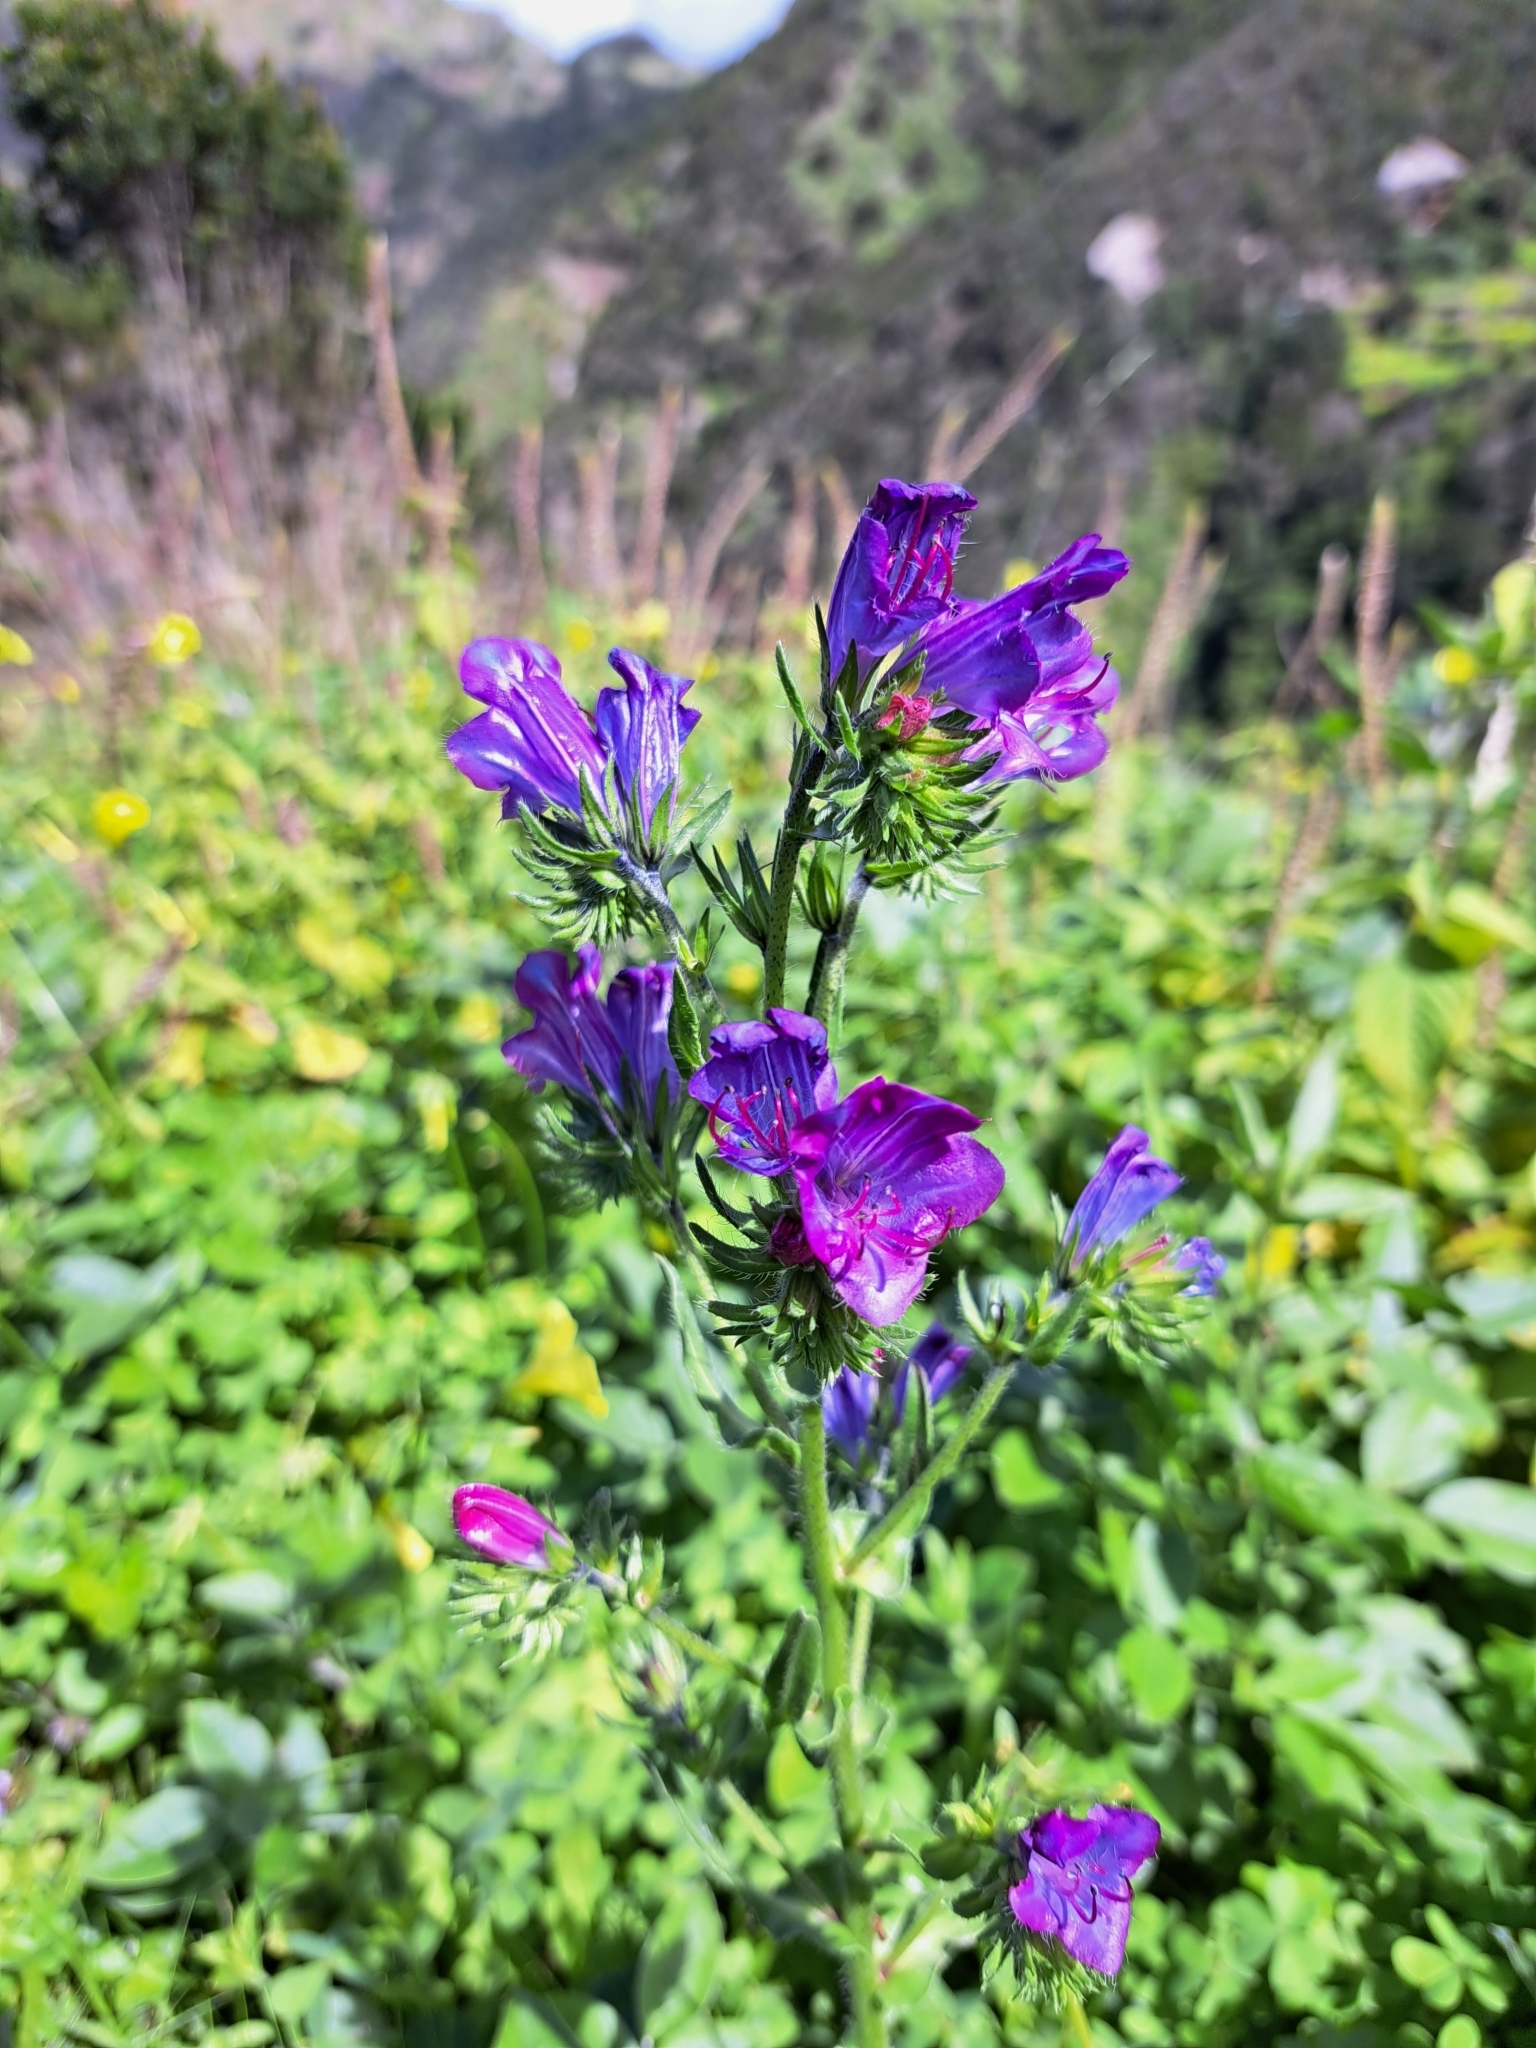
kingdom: Plantae
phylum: Tracheophyta
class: Magnoliopsida
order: Boraginales
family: Boraginaceae
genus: Echium
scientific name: Echium plantagineum
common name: Purple viper's-bugloss
